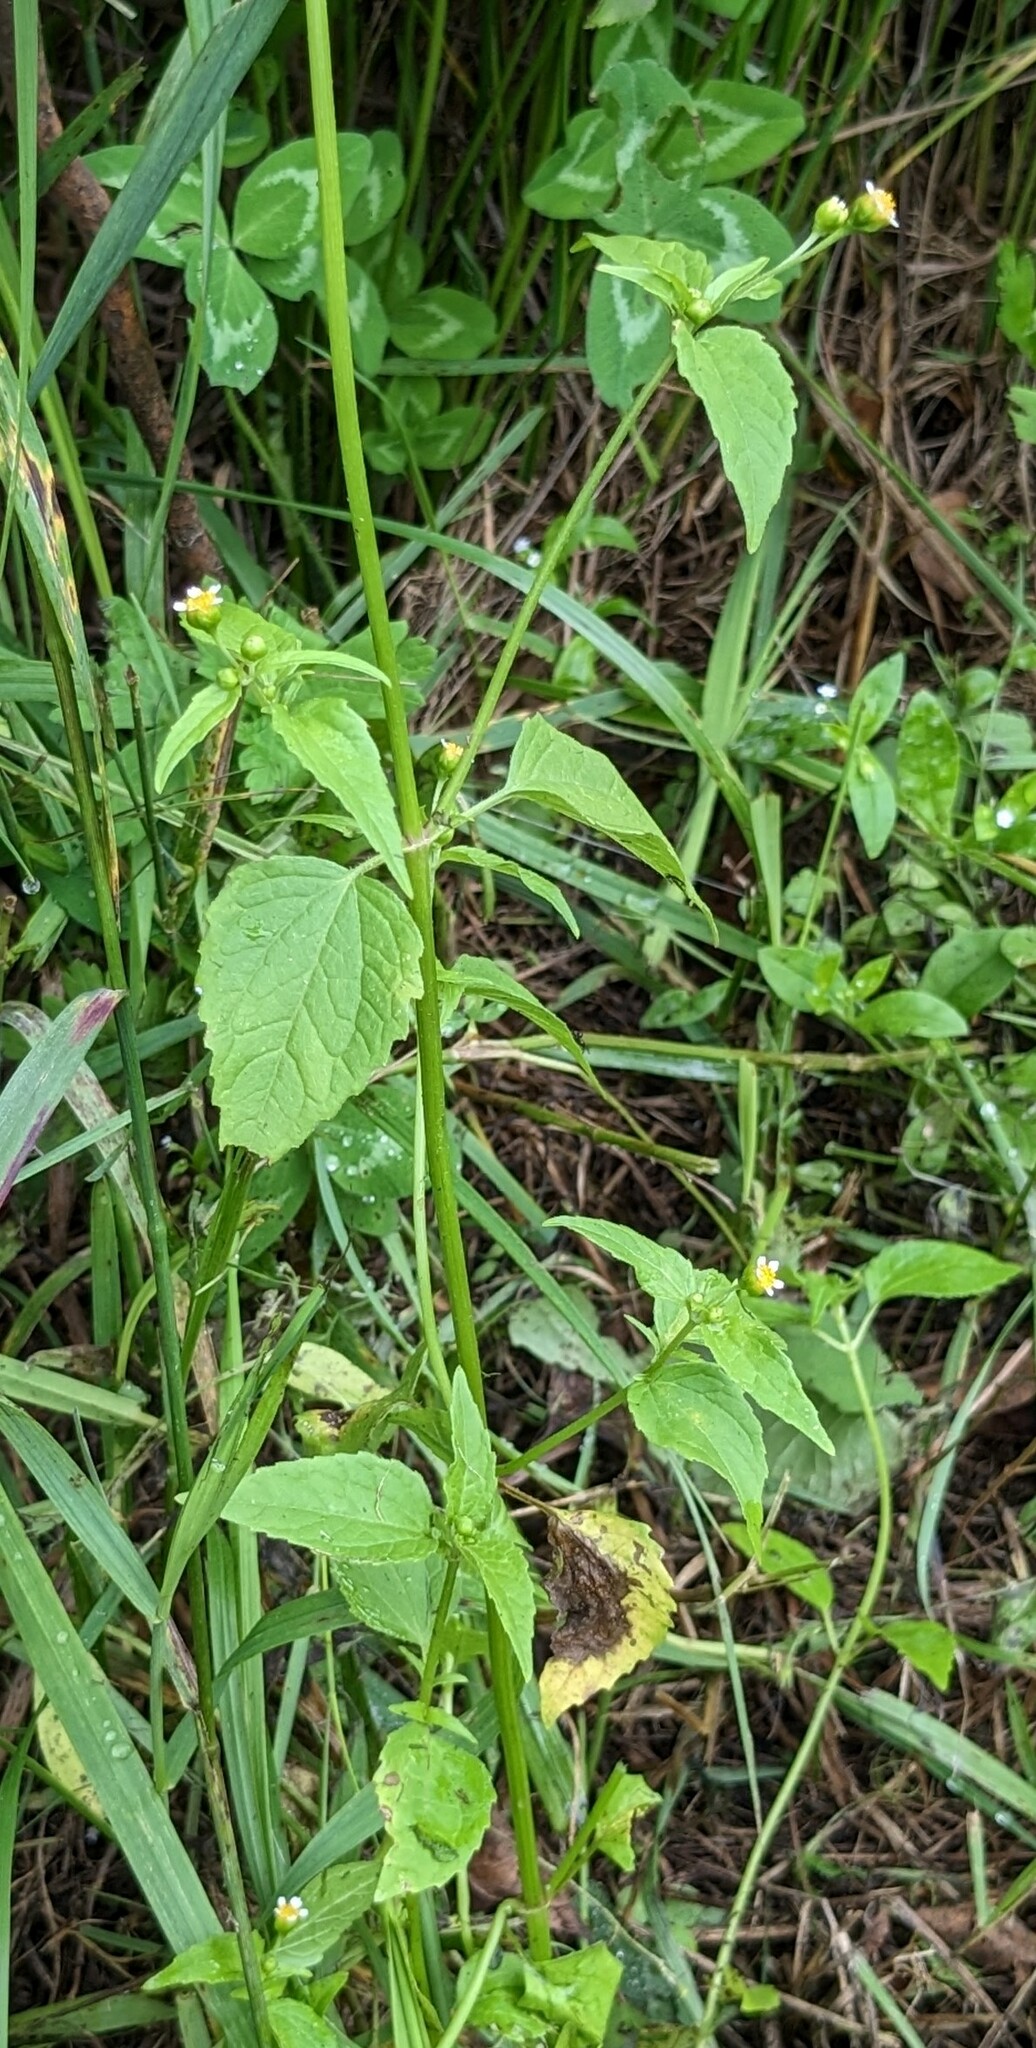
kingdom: Plantae
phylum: Tracheophyta
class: Magnoliopsida
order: Asterales
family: Asteraceae
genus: Galinsoga
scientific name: Galinsoga parviflora
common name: Gallant soldier
